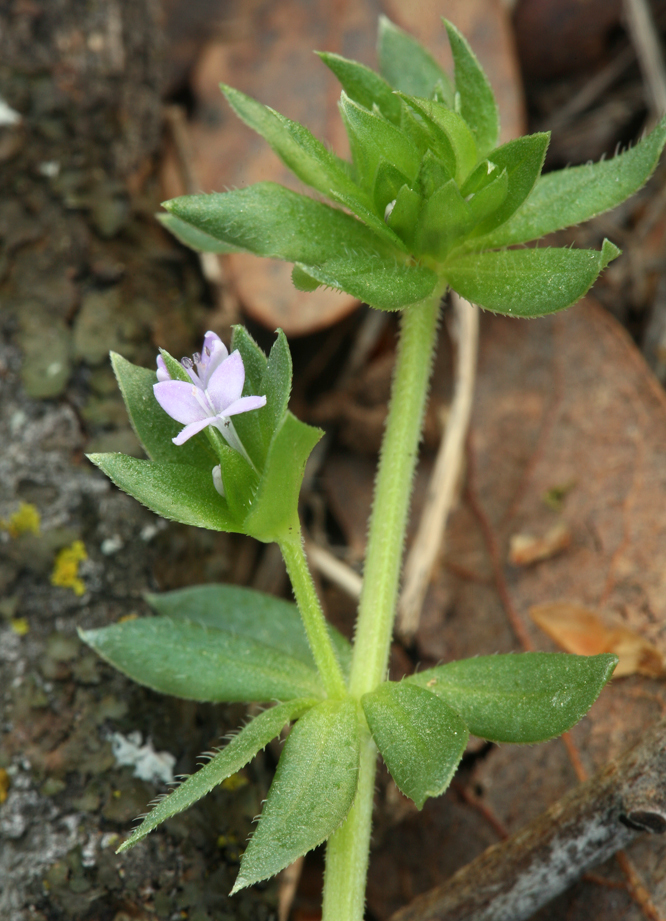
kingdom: Plantae
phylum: Tracheophyta
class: Magnoliopsida
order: Gentianales
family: Rubiaceae
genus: Sherardia
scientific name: Sherardia arvensis
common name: Field madder
